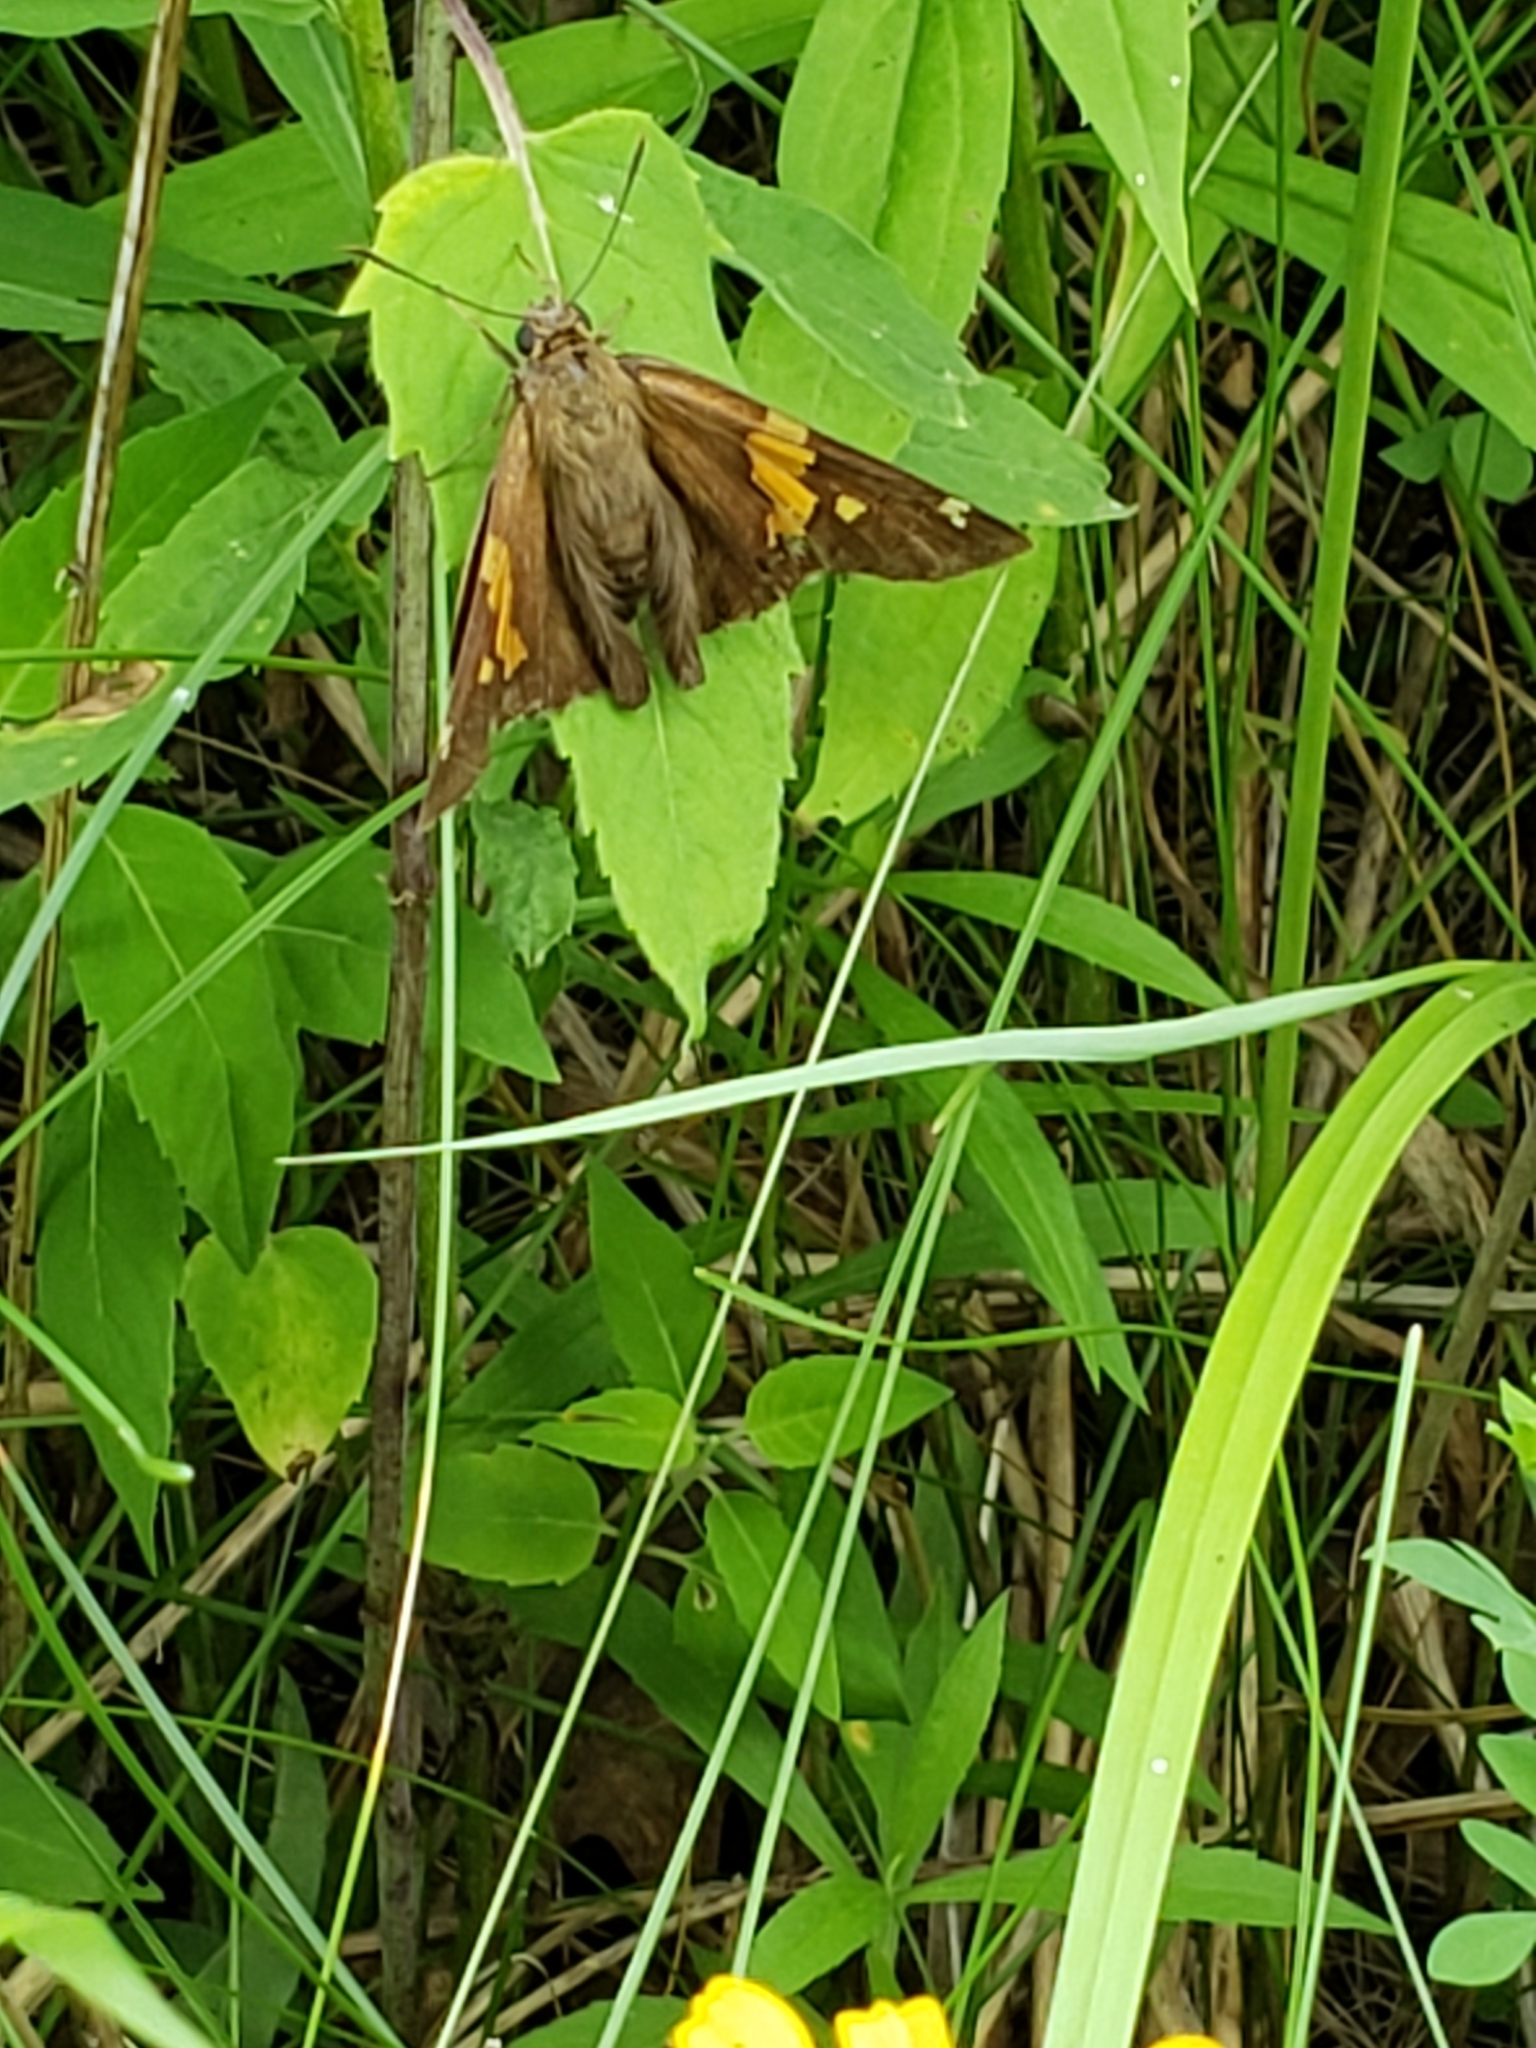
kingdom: Animalia
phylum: Arthropoda
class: Insecta
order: Lepidoptera
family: Hesperiidae
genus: Epargyreus
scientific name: Epargyreus clarus
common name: Silver-spotted skipper
